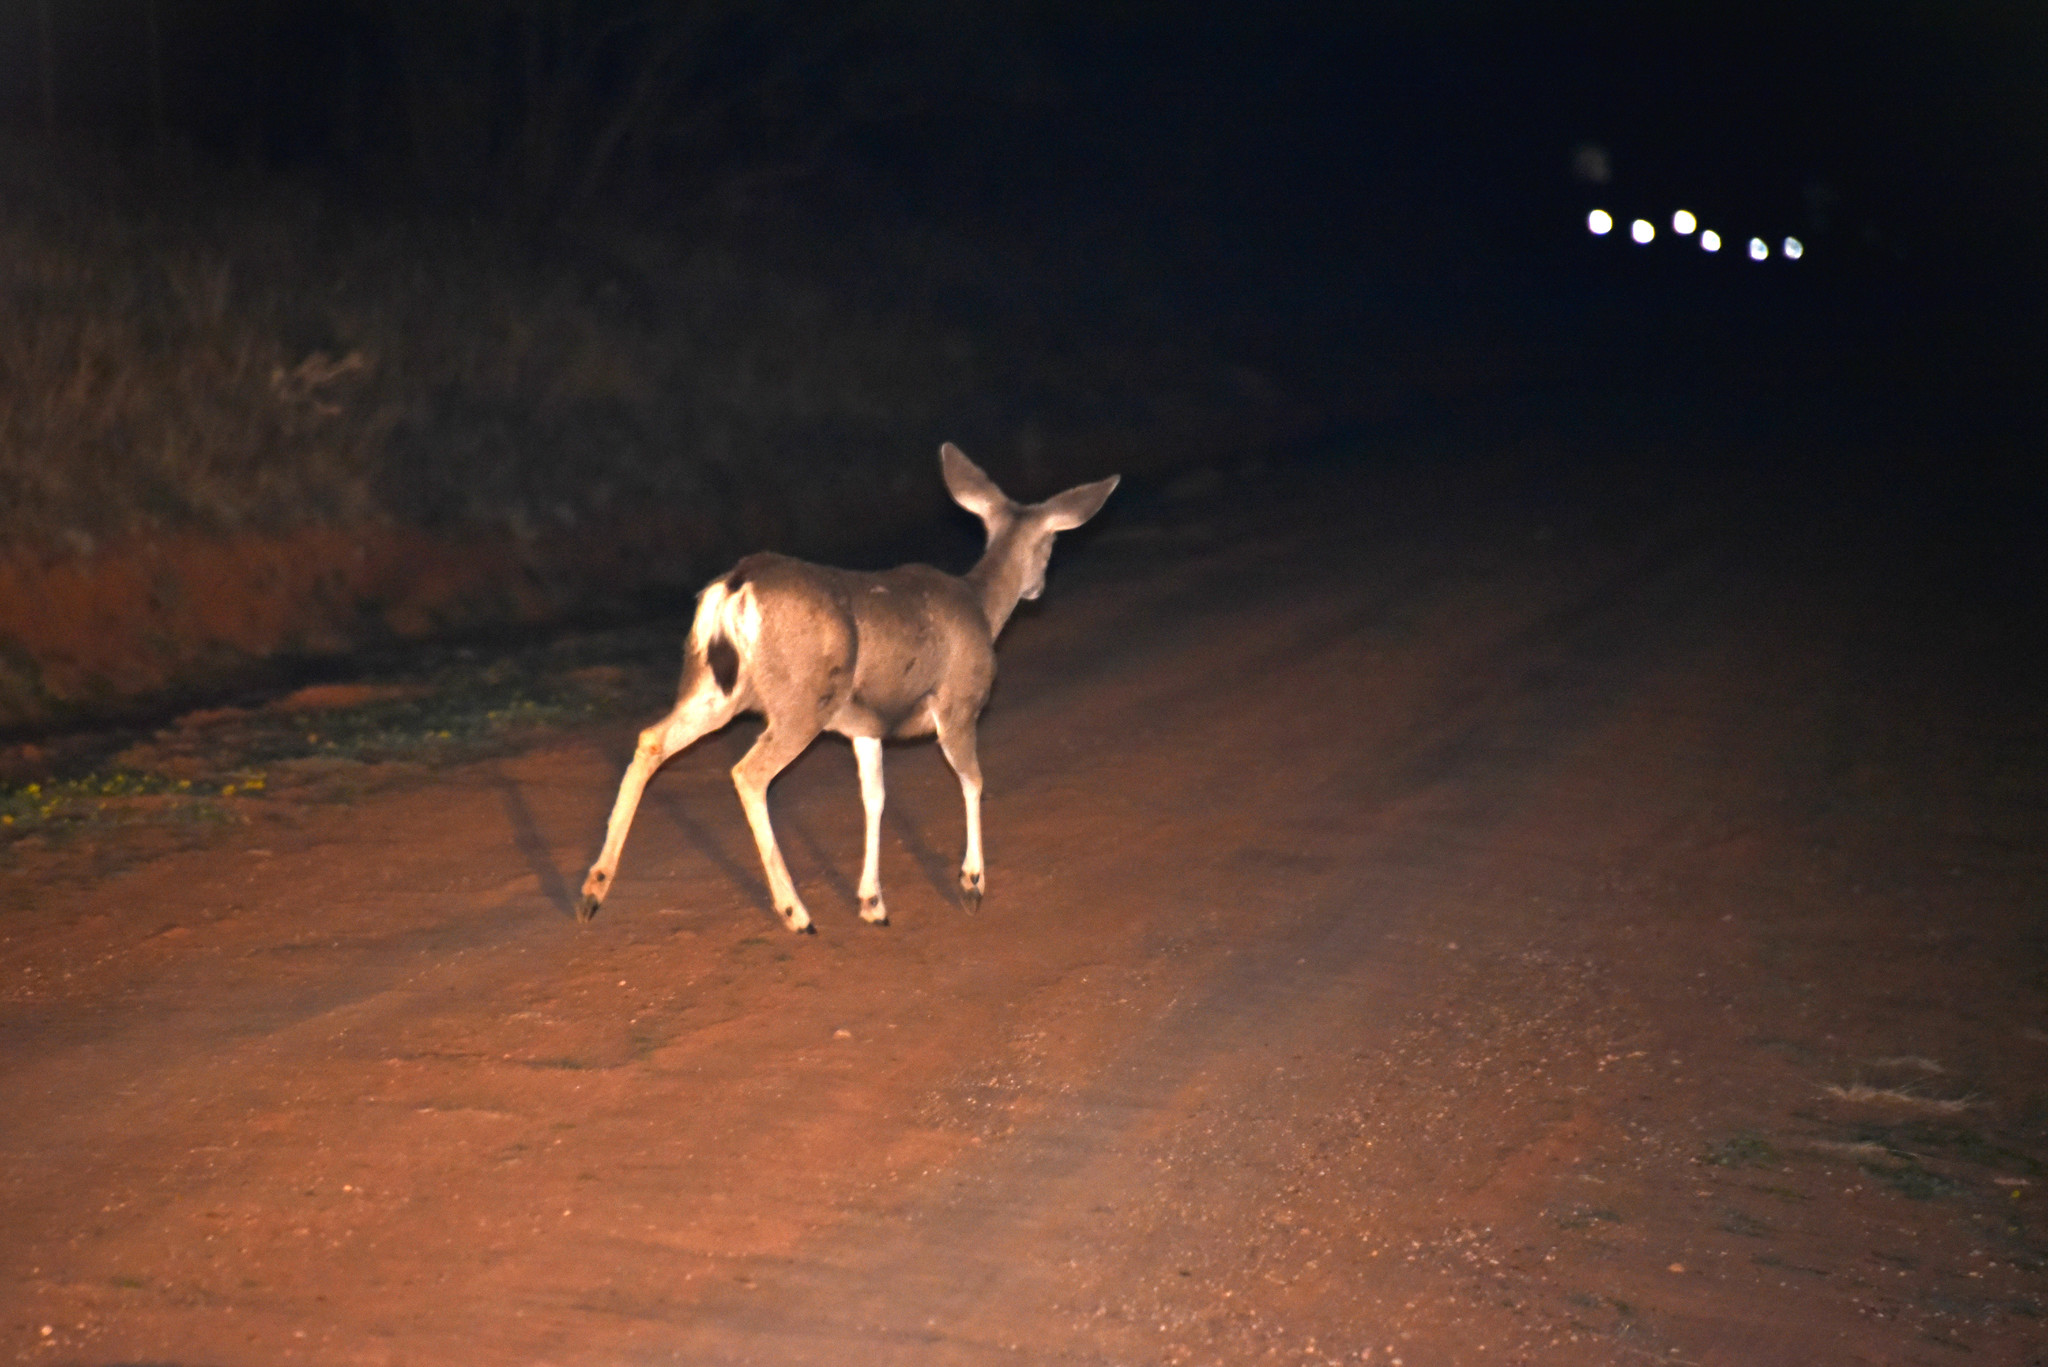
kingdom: Animalia
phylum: Chordata
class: Mammalia
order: Artiodactyla
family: Cervidae
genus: Odocoileus
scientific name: Odocoileus hemionus
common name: Mule deer
